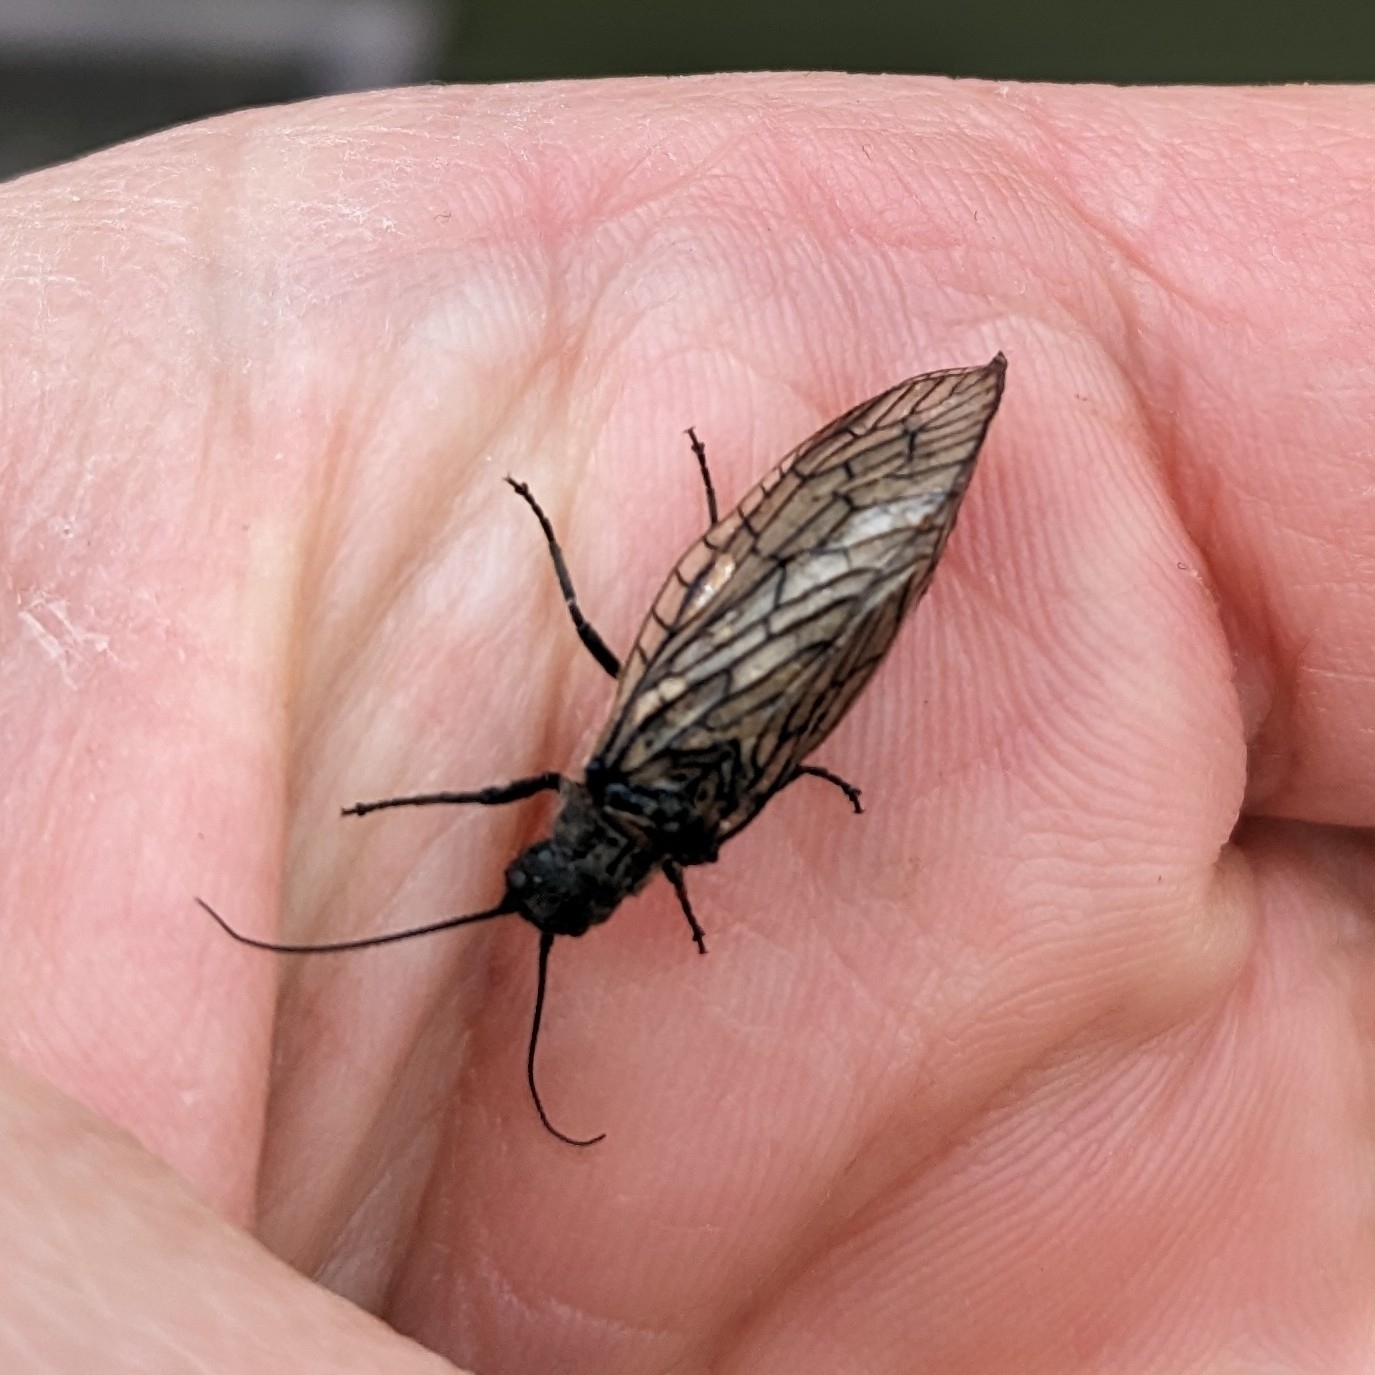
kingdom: Animalia
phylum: Arthropoda
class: Insecta
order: Megaloptera
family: Sialidae
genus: Sialis
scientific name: Sialis
